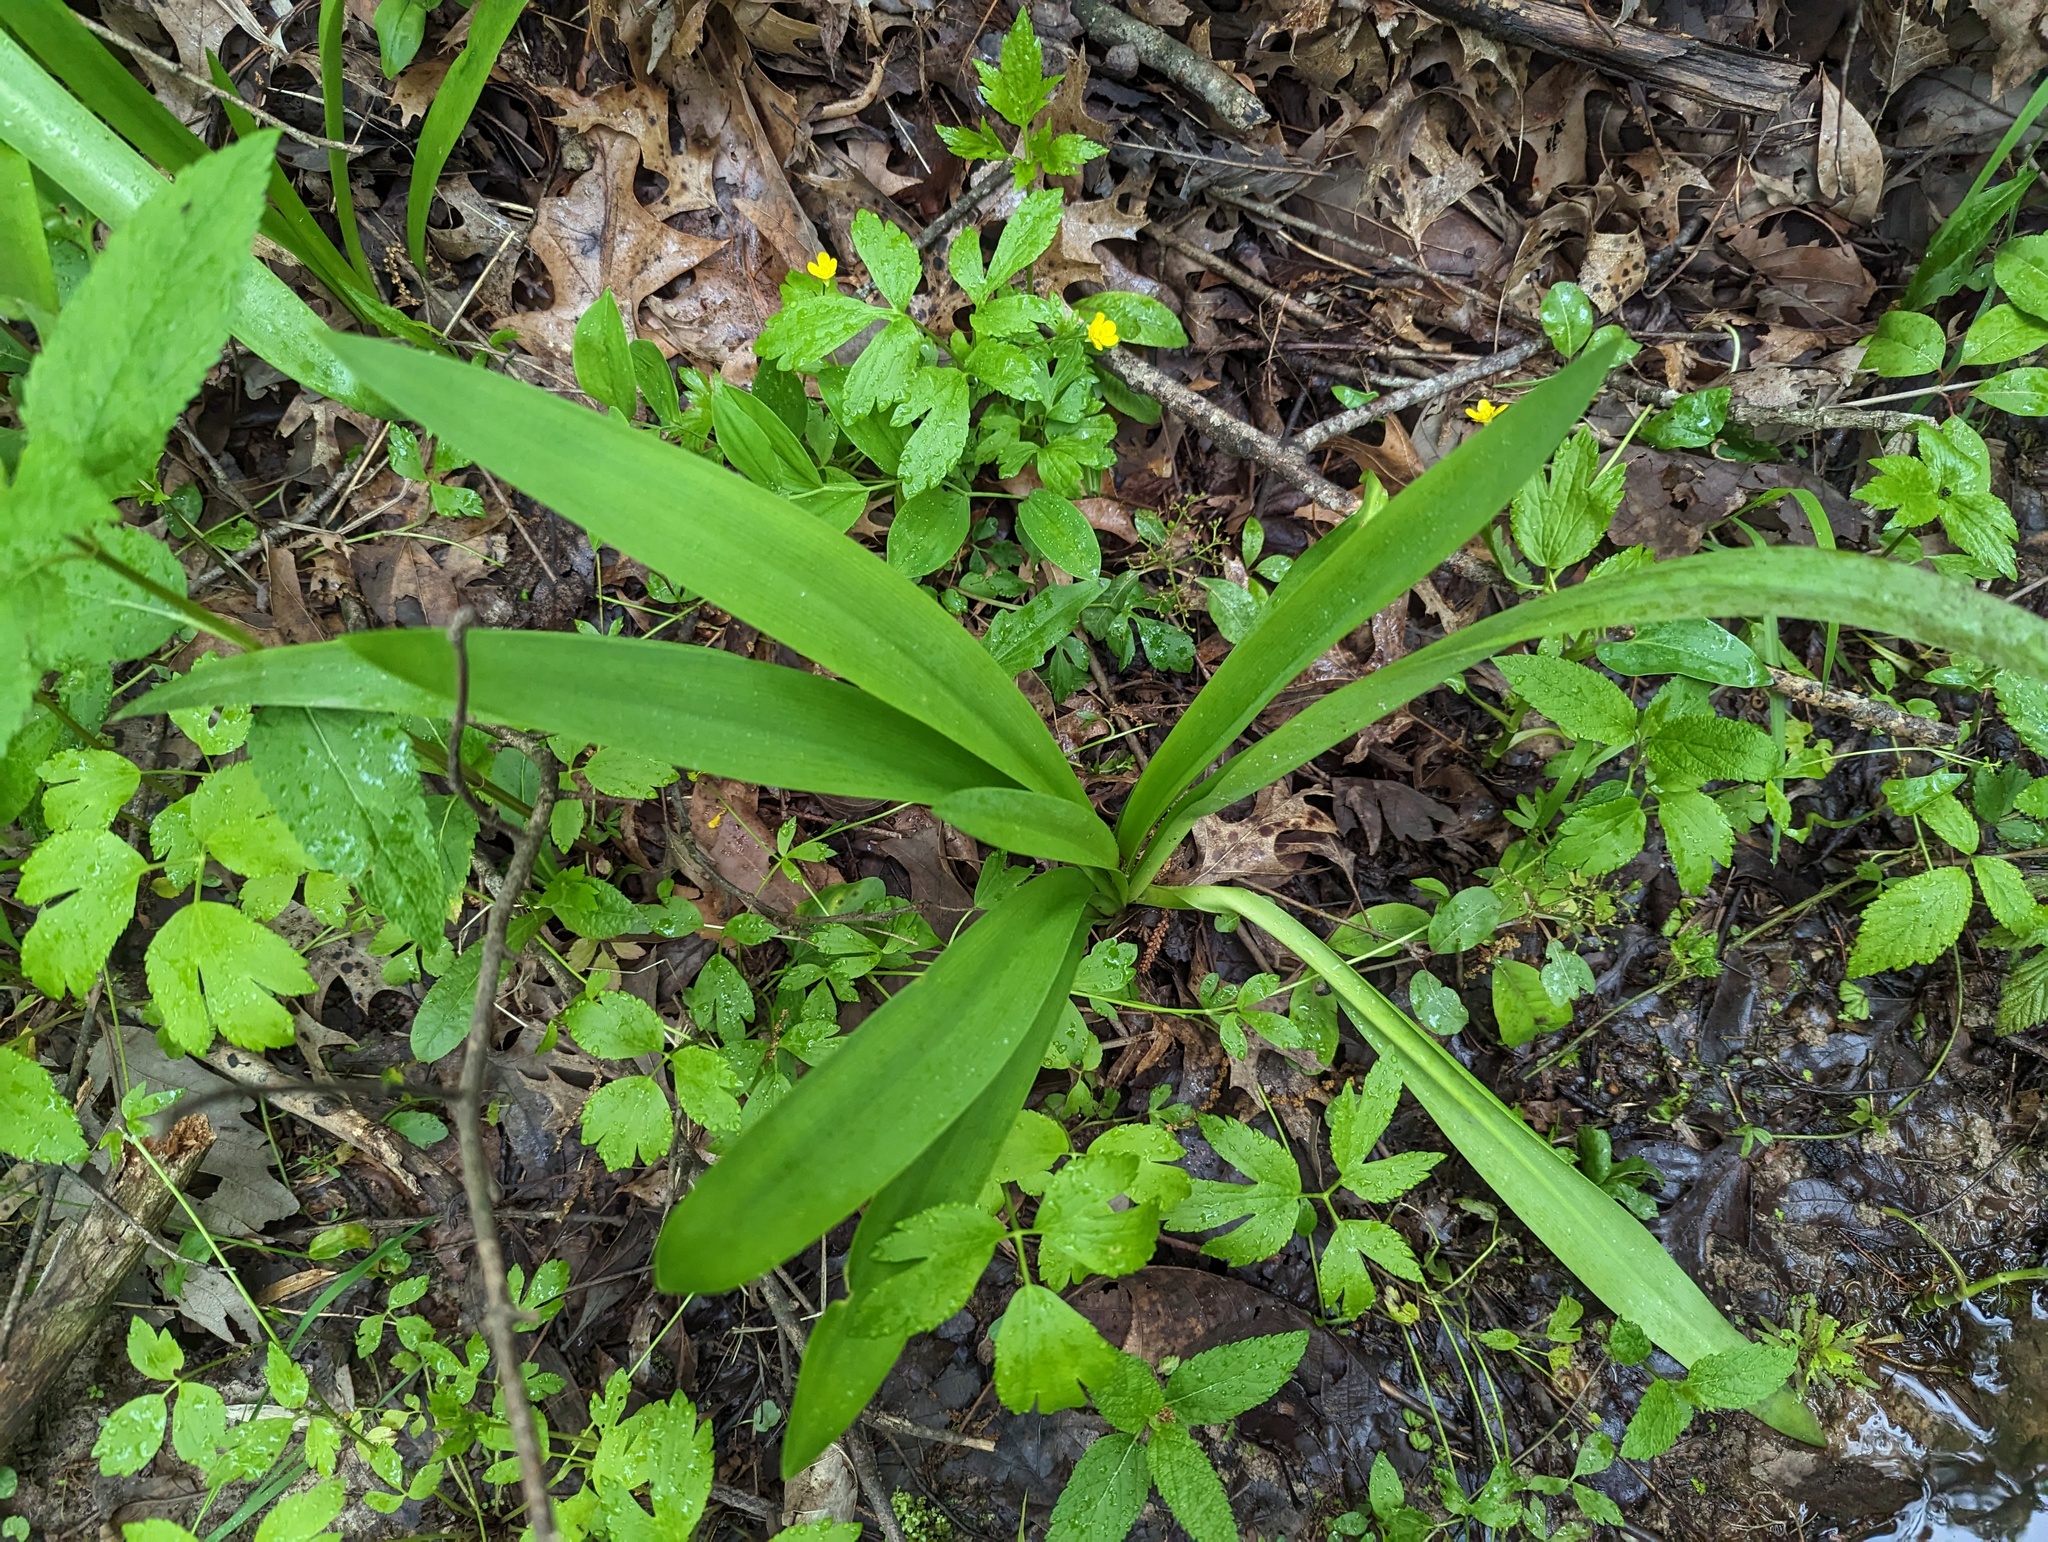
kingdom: Plantae
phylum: Tracheophyta
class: Liliopsida
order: Asparagales
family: Amaryllidaceae
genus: Hymenocallis
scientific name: Hymenocallis occidentalis
